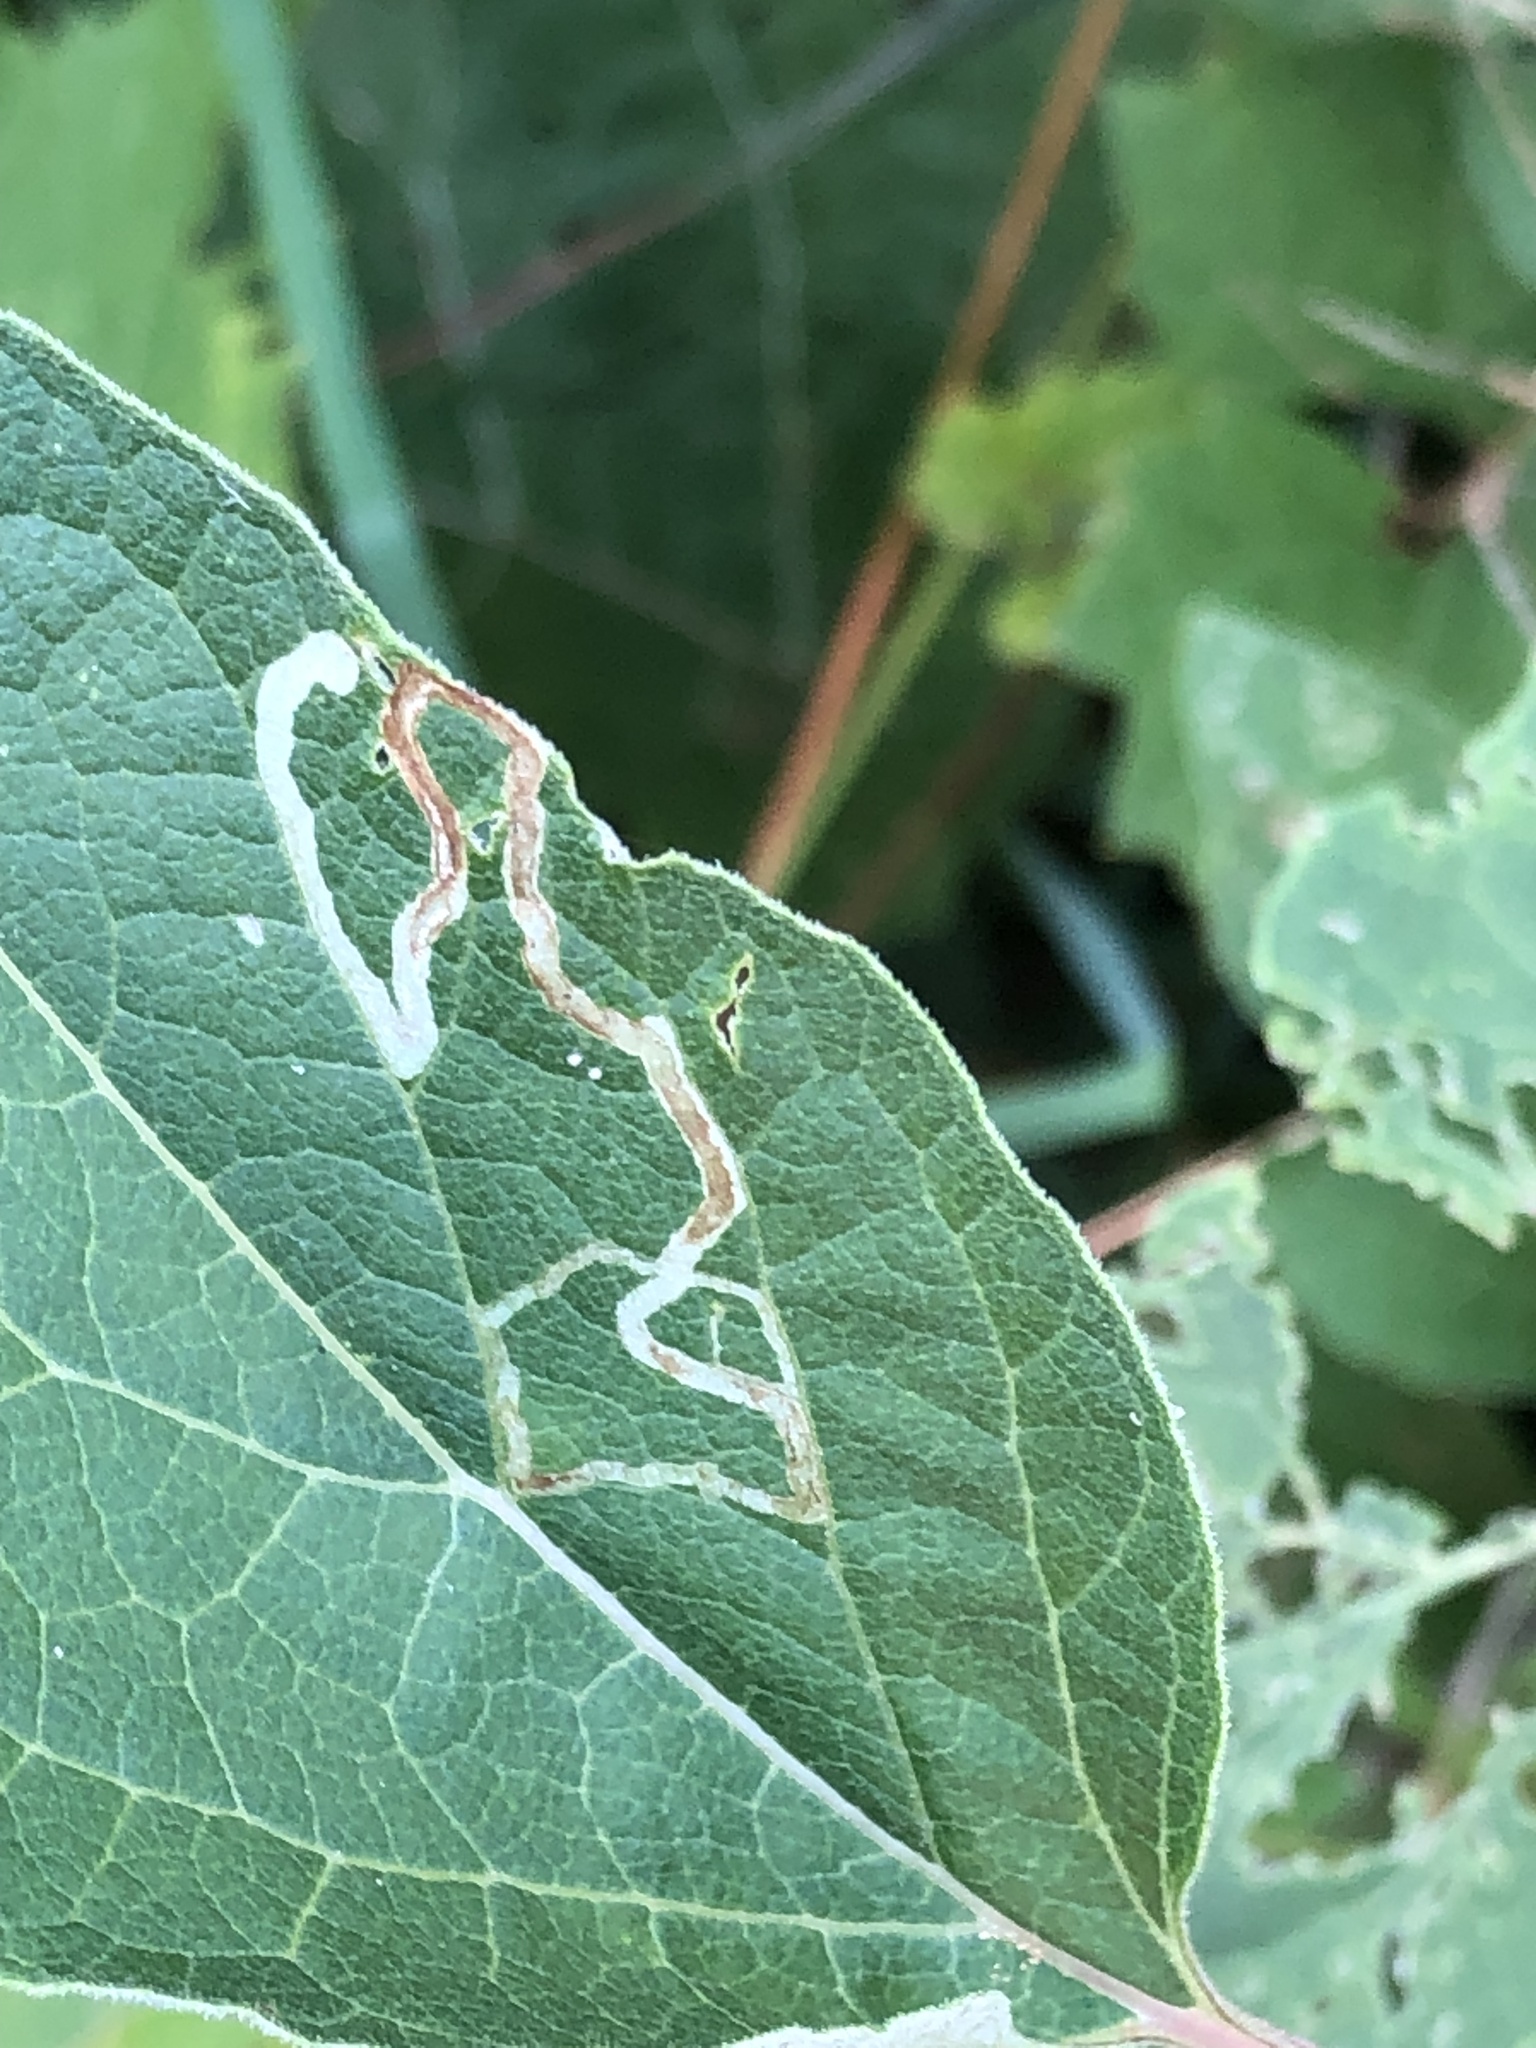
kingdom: Animalia
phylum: Arthropoda
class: Insecta
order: Diptera
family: Agromyzidae
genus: Liriomyza
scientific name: Liriomyza arctii
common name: Burdock leafminer
